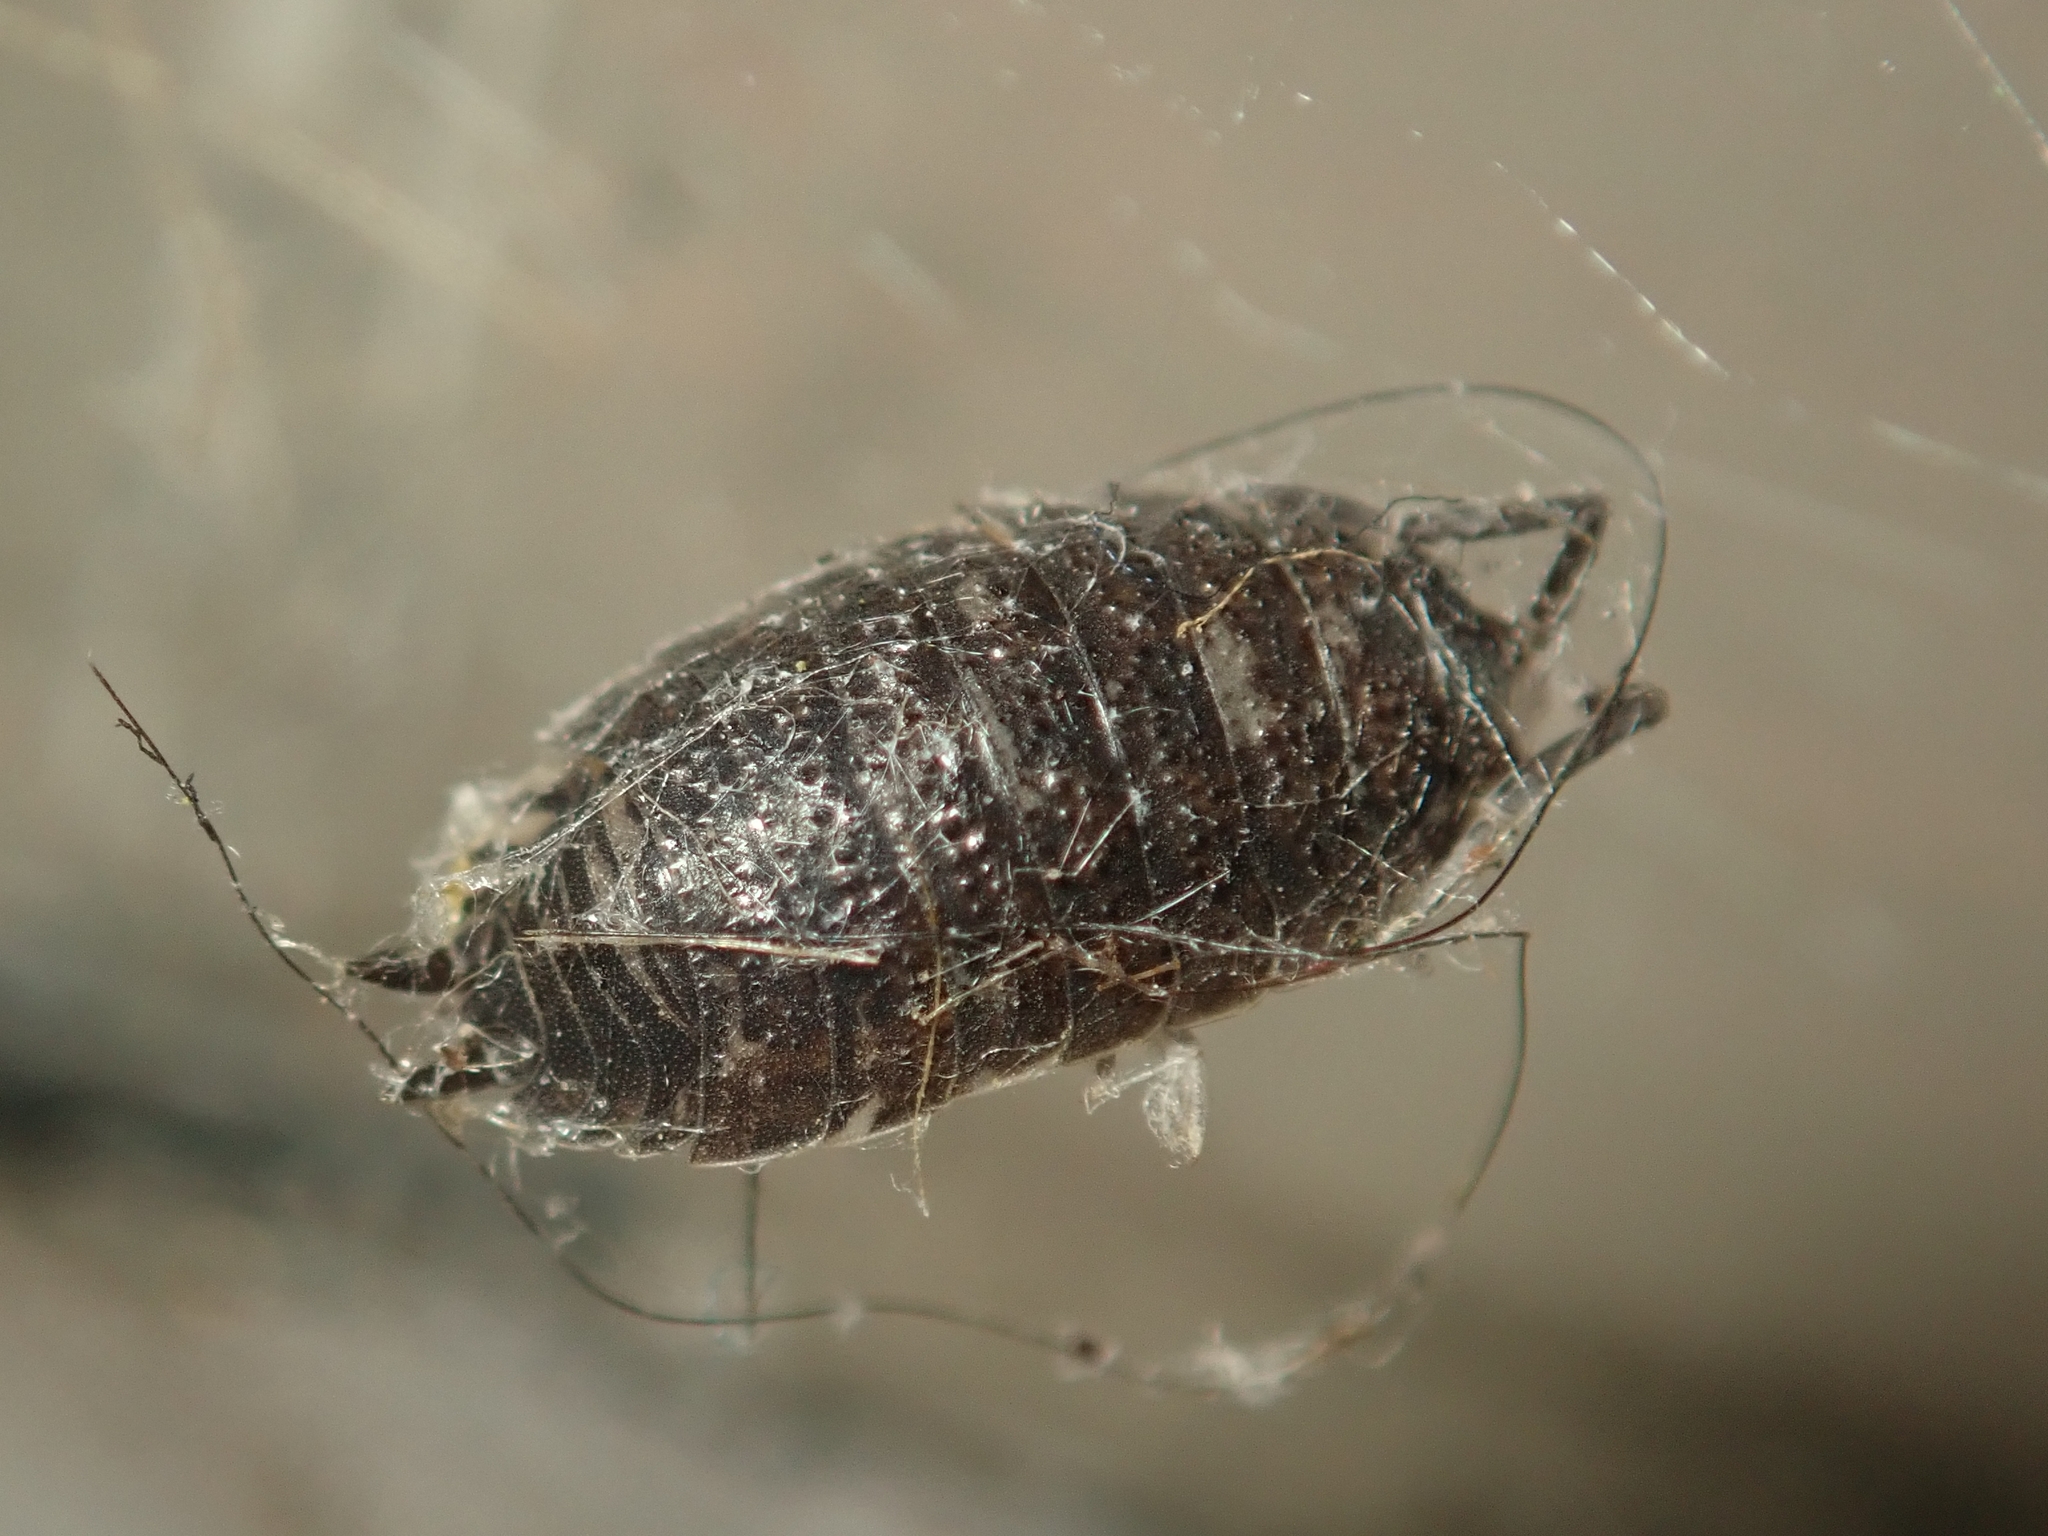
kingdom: Animalia
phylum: Arthropoda
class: Malacostraca
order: Isopoda
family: Porcellionidae
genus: Porcellio
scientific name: Porcellio scaber
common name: Common rough woodlouse
